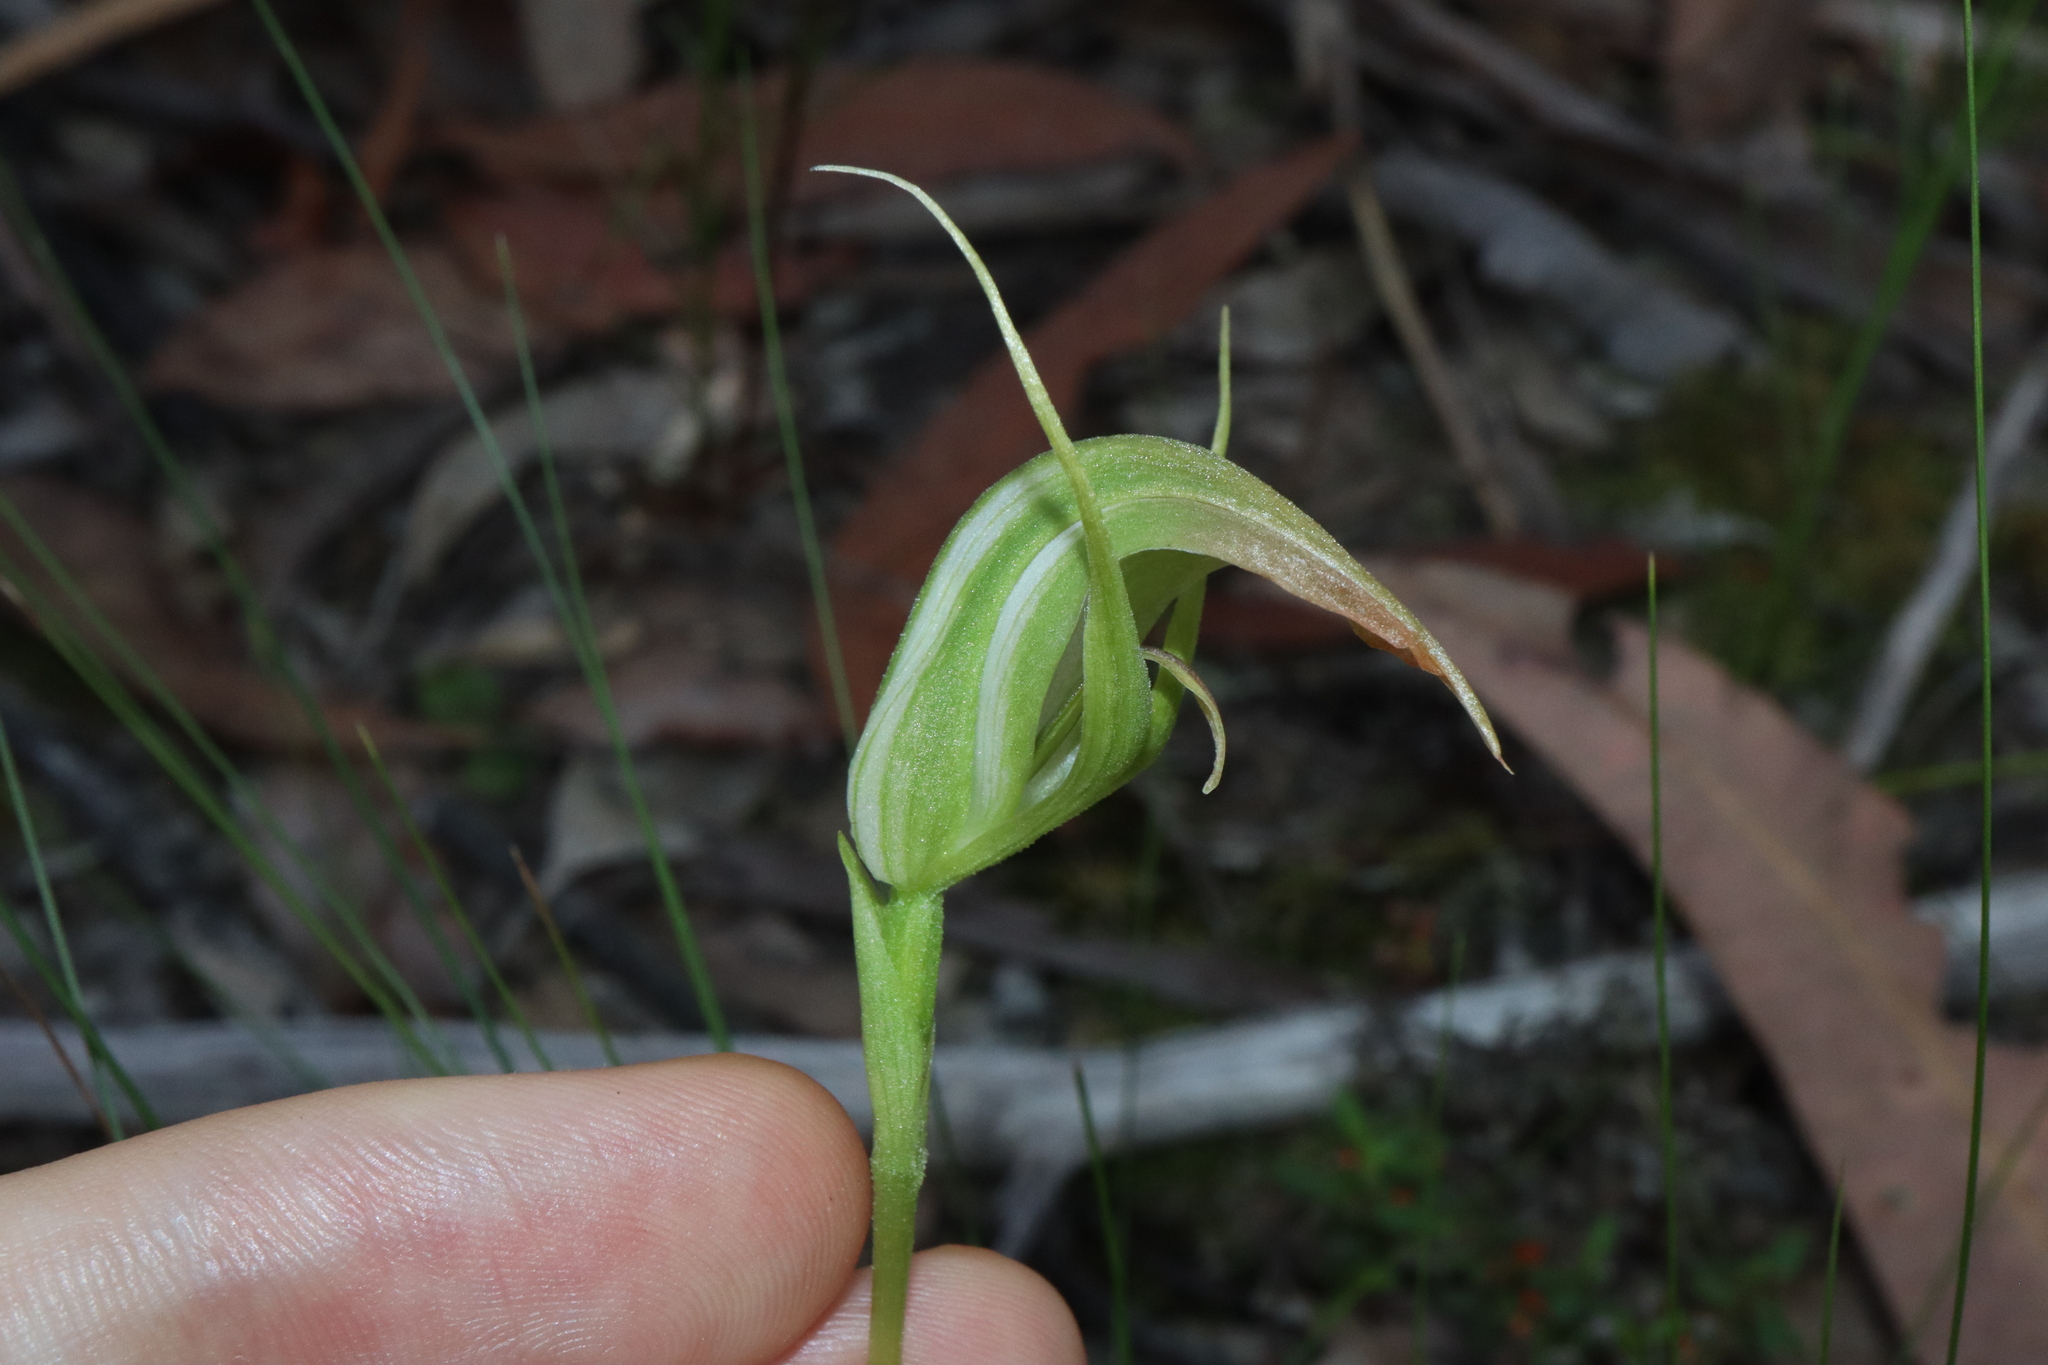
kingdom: Plantae
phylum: Tracheophyta
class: Liliopsida
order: Asparagales
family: Orchidaceae
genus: Pterostylis
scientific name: Pterostylis acuminata
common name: Pointed greenhood
